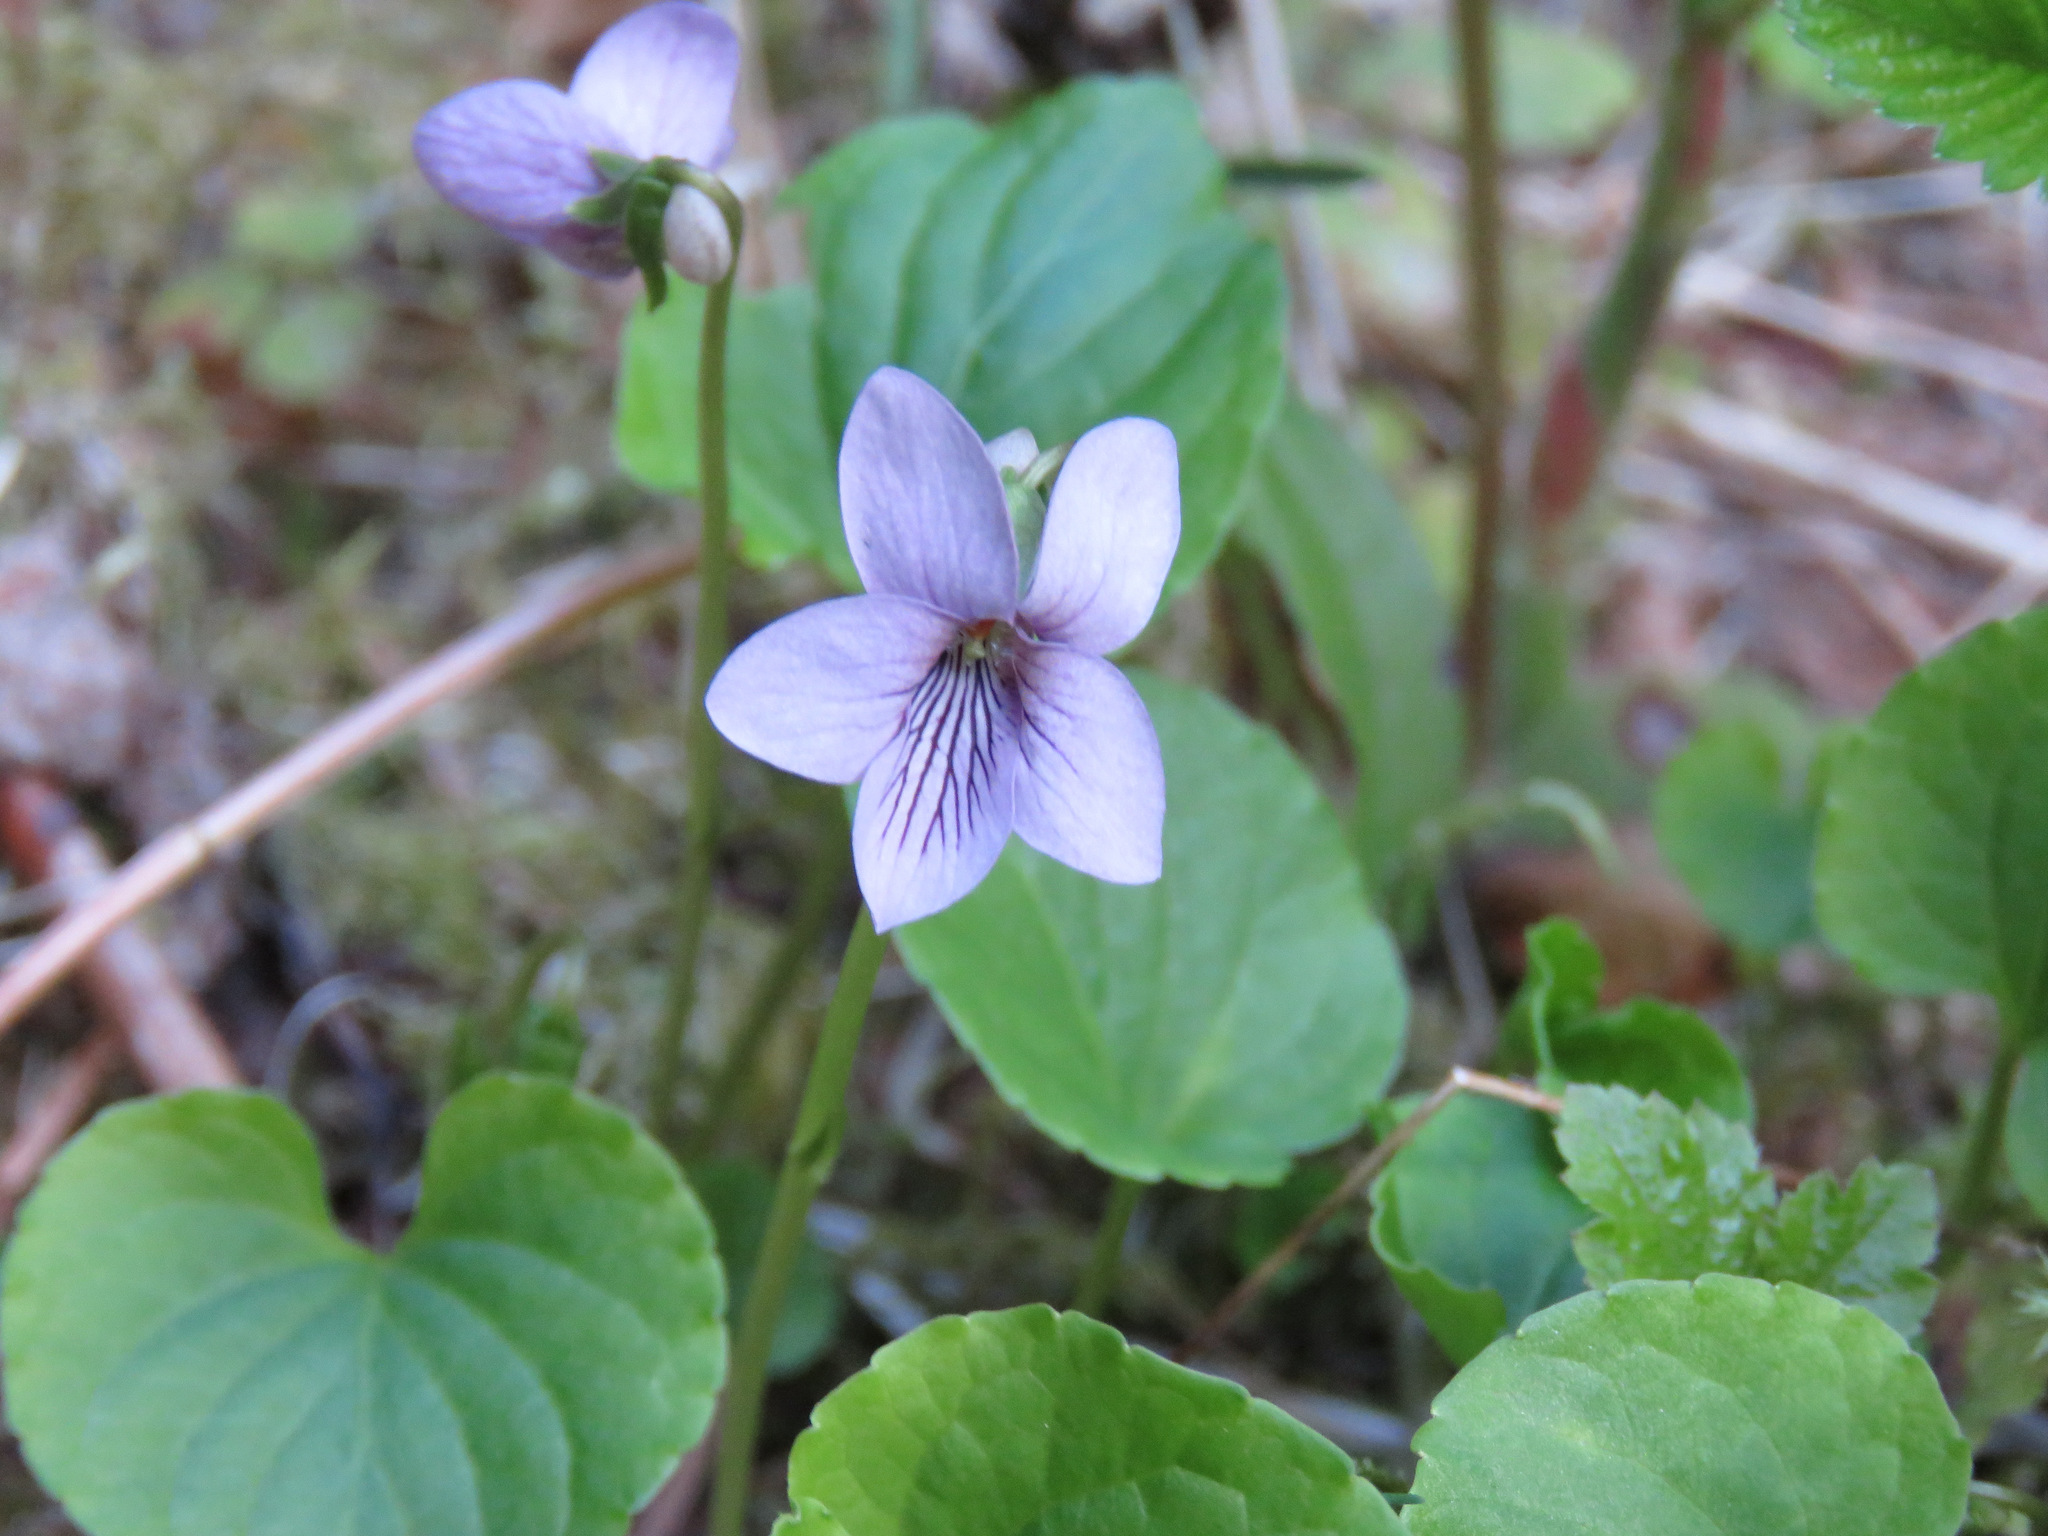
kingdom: Plantae
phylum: Tracheophyta
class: Magnoliopsida
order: Malpighiales
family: Violaceae
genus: Viola
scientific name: Viola palustris
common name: Marsh violet
